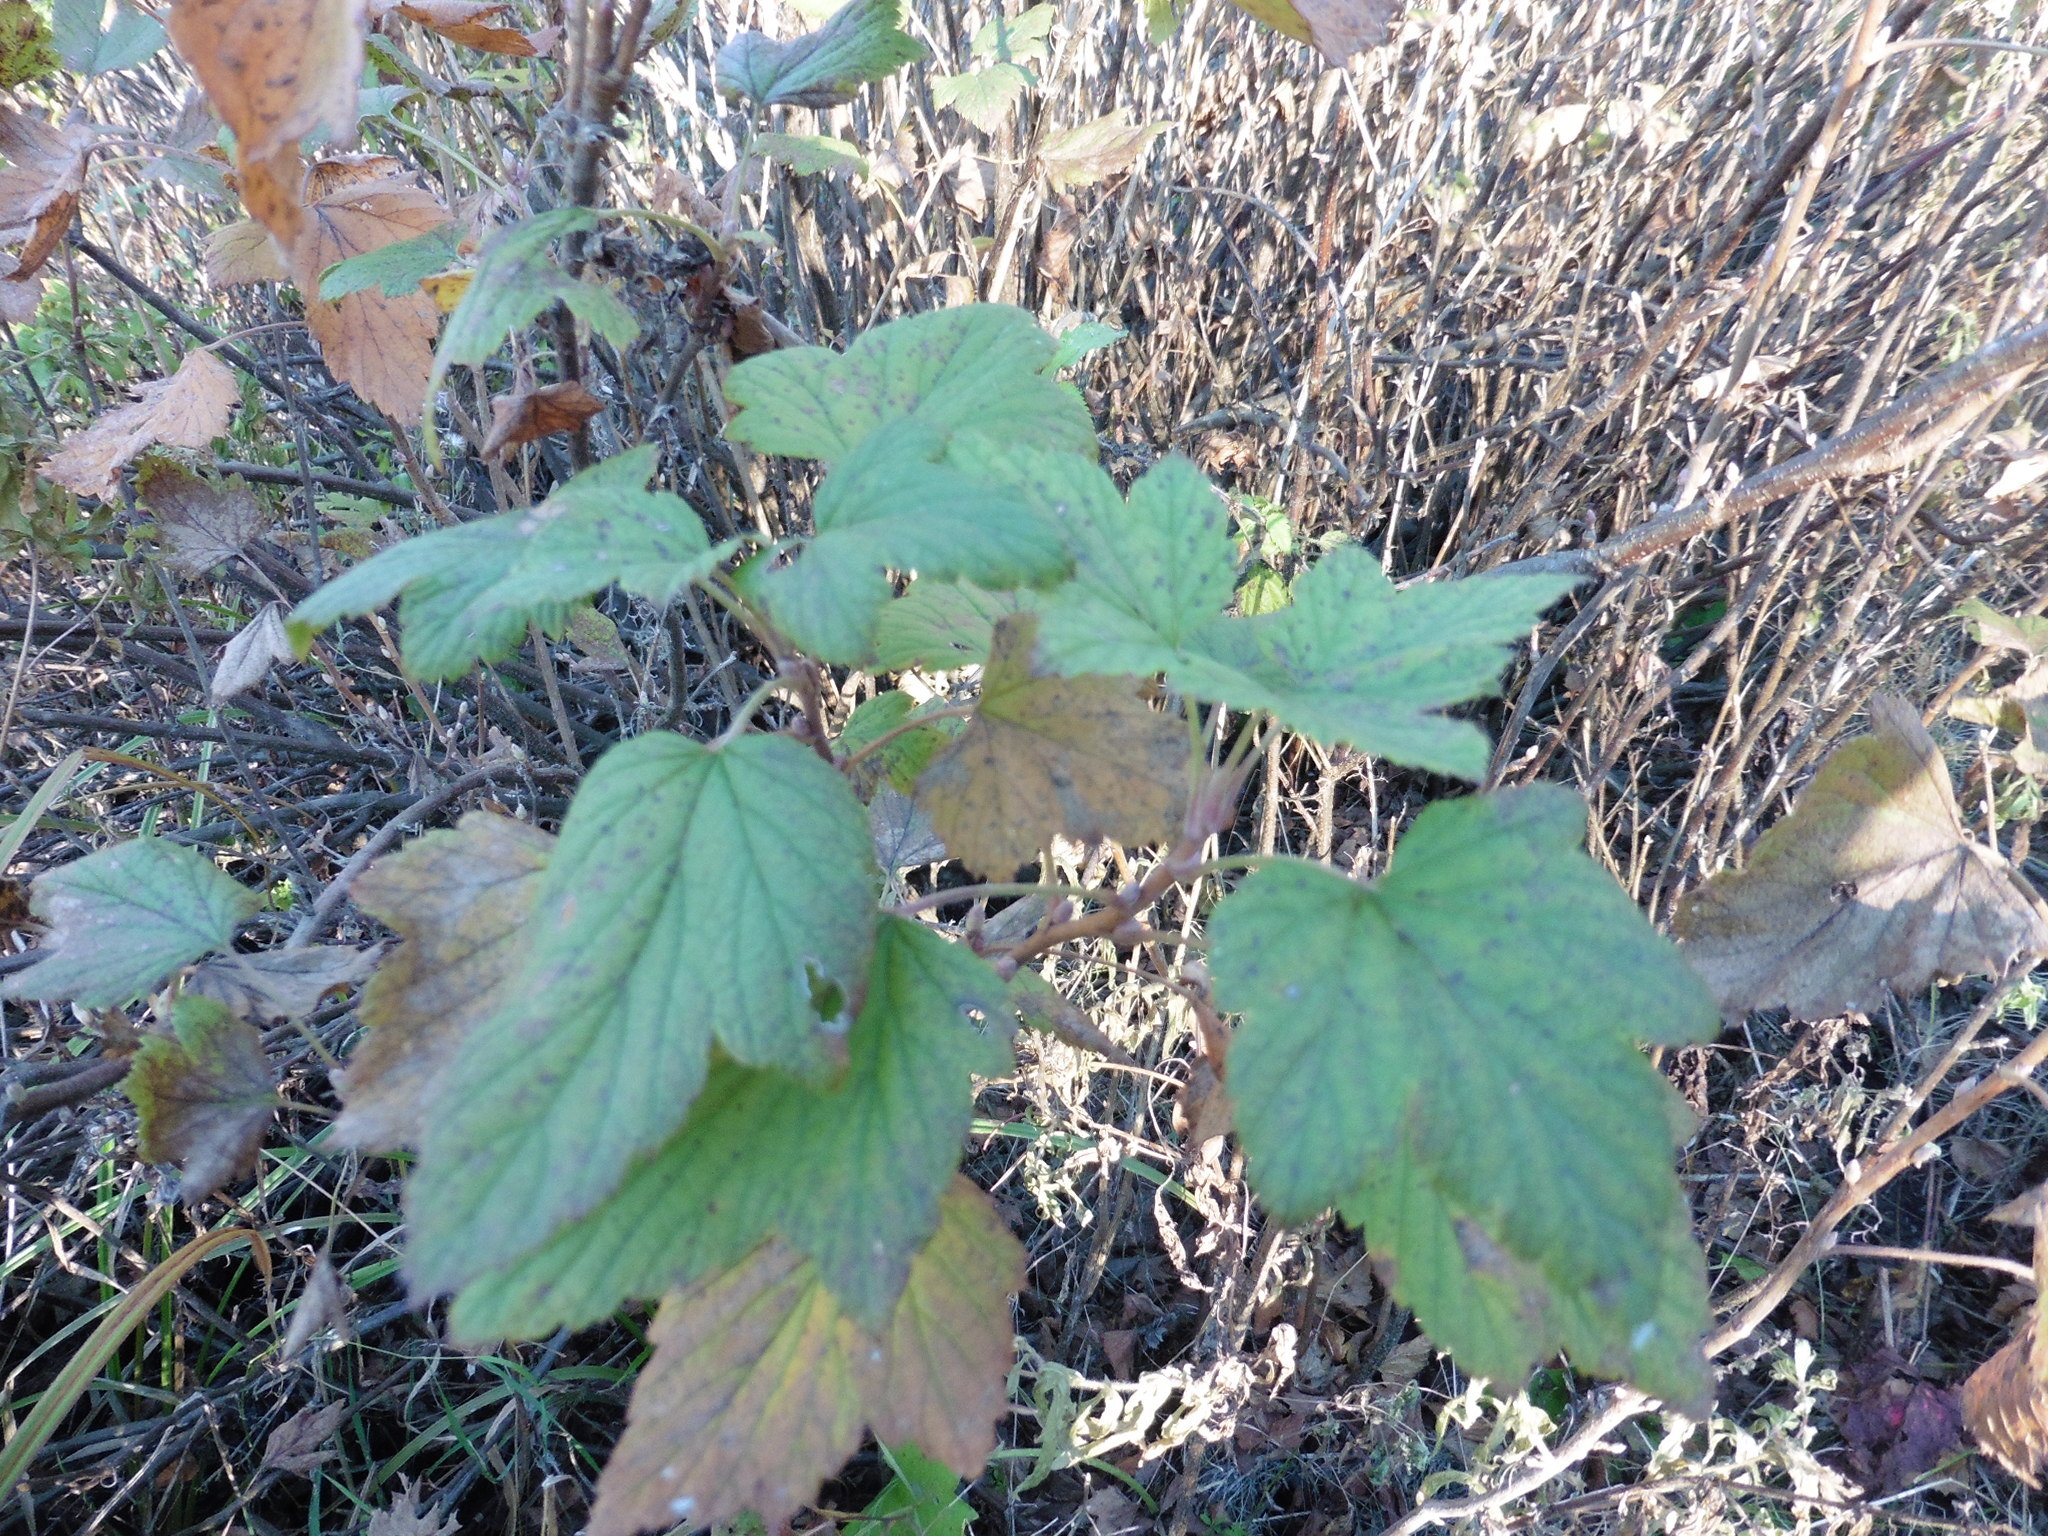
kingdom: Plantae
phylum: Tracheophyta
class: Magnoliopsida
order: Saxifragales
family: Grossulariaceae
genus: Ribes
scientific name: Ribes nigrum
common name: Black currant
